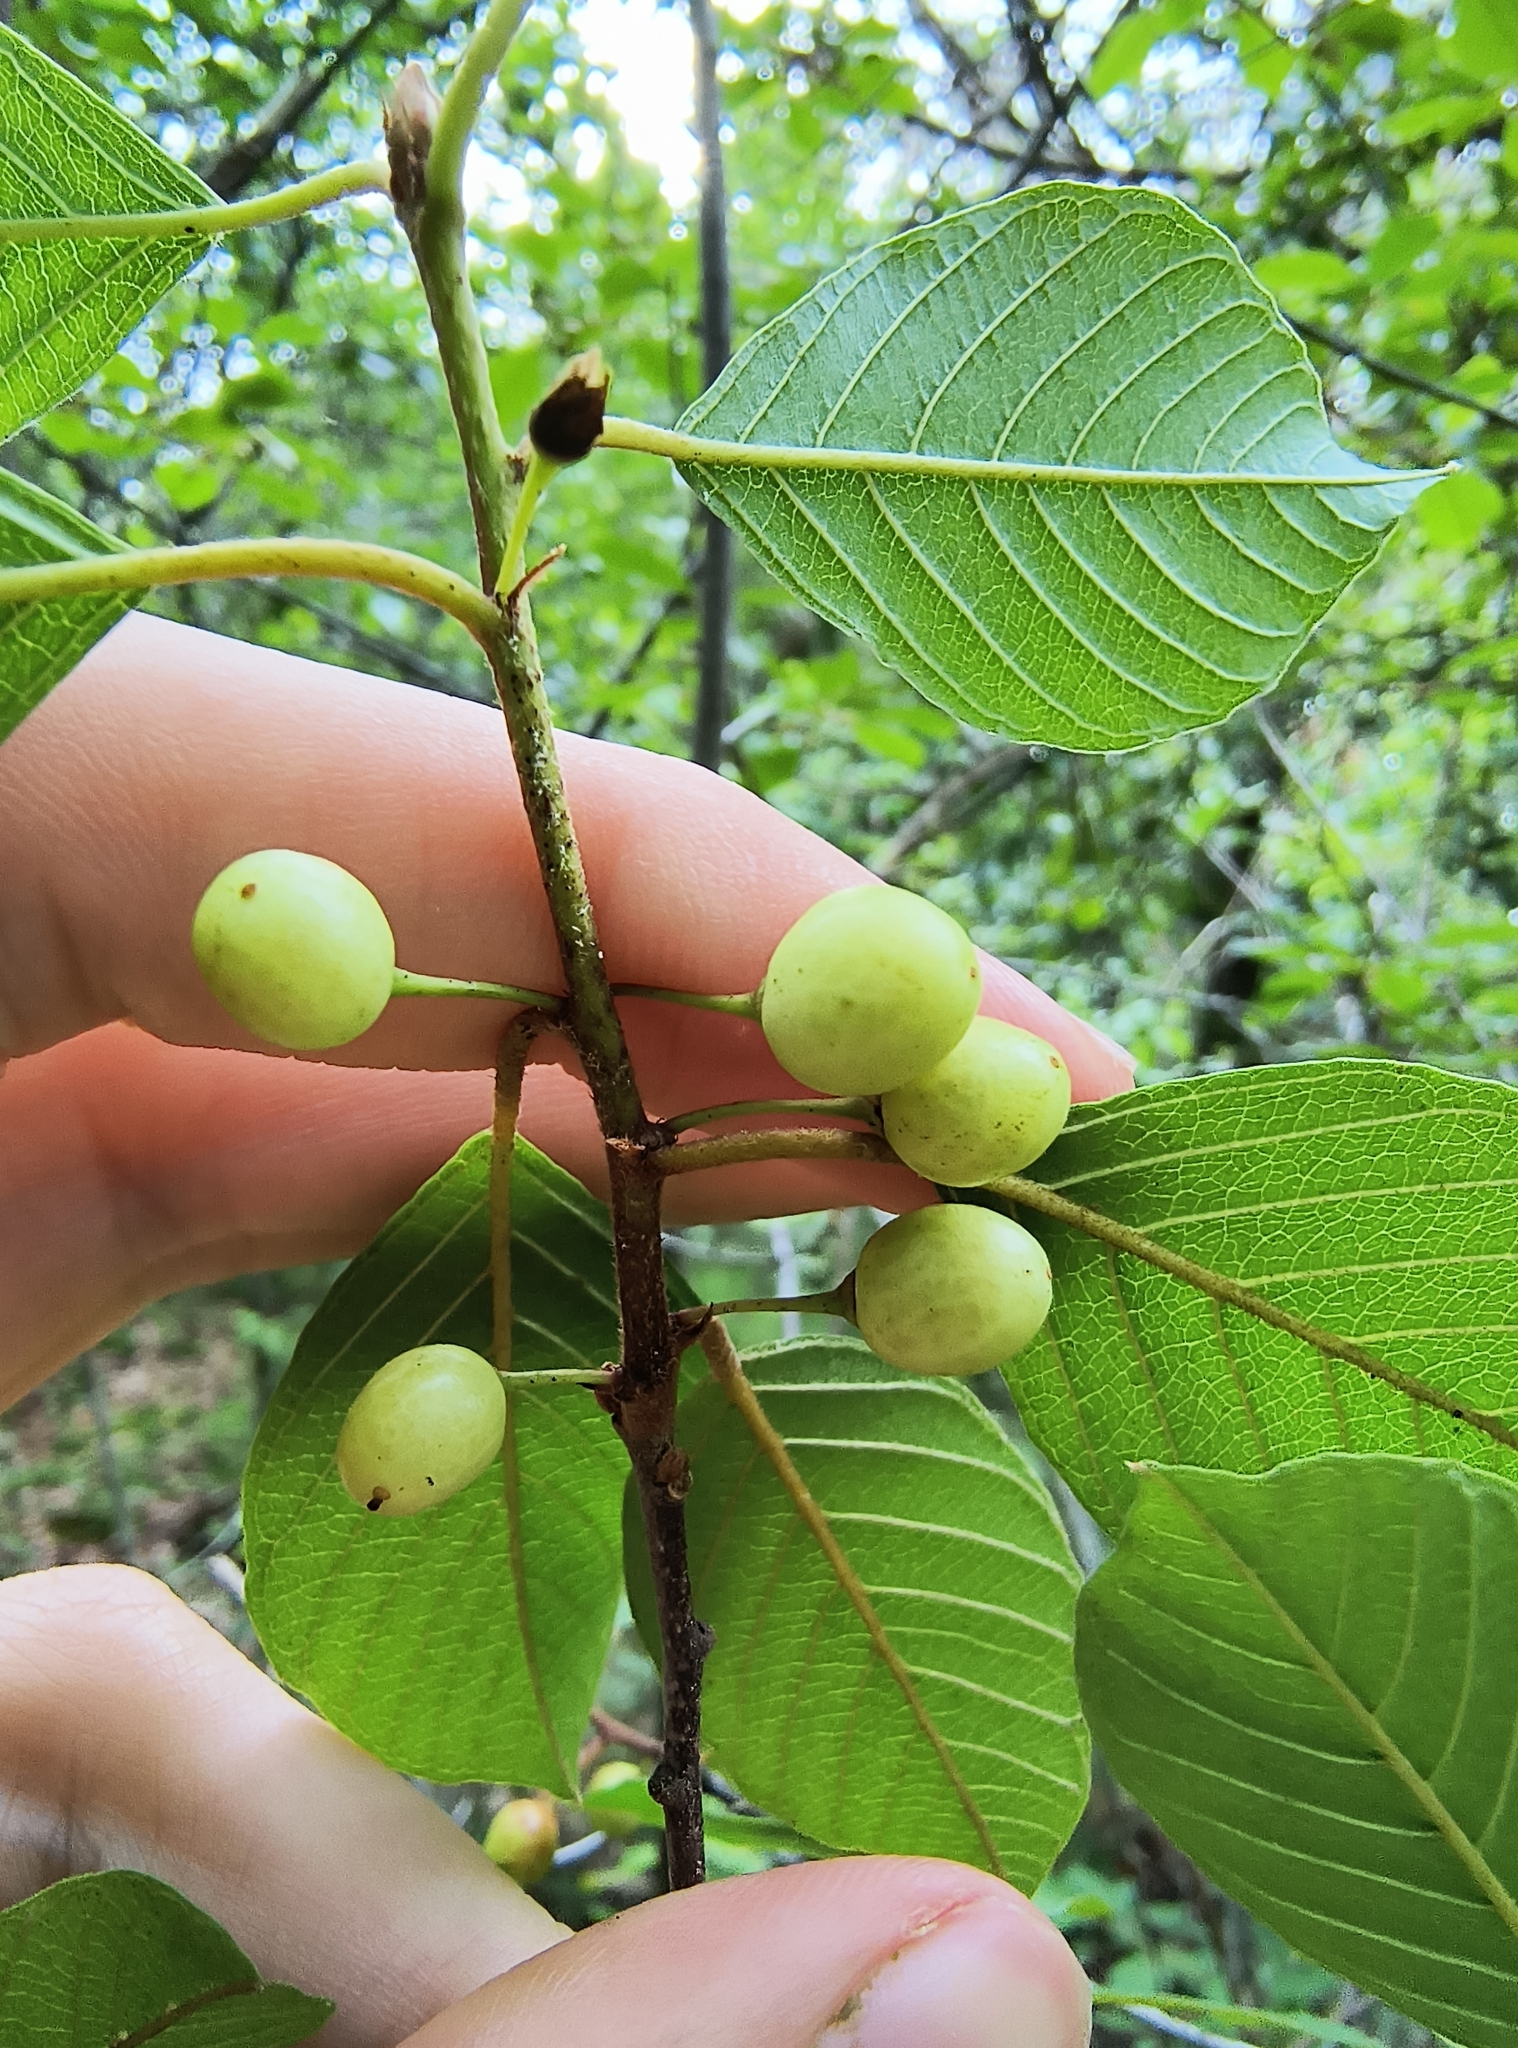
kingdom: Plantae
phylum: Tracheophyta
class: Magnoliopsida
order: Rosales
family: Rhamnaceae
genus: Frangula
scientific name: Frangula alnus
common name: Alder buckthorn
